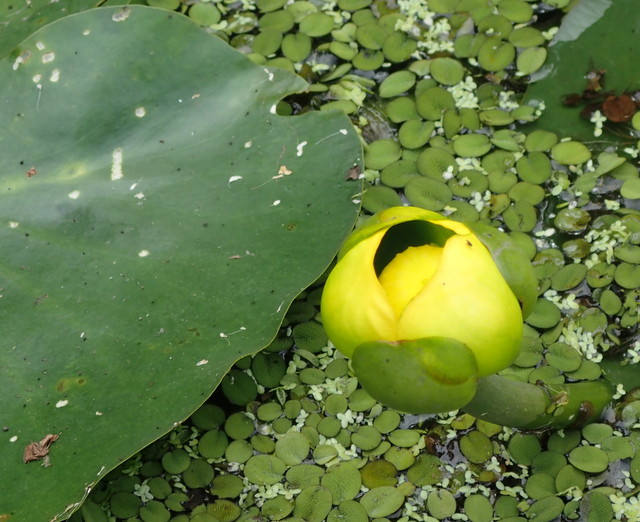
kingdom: Plantae
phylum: Tracheophyta
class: Magnoliopsida
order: Nymphaeales
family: Nymphaeaceae
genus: Nuphar
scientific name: Nuphar advena
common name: Spatter-dock
